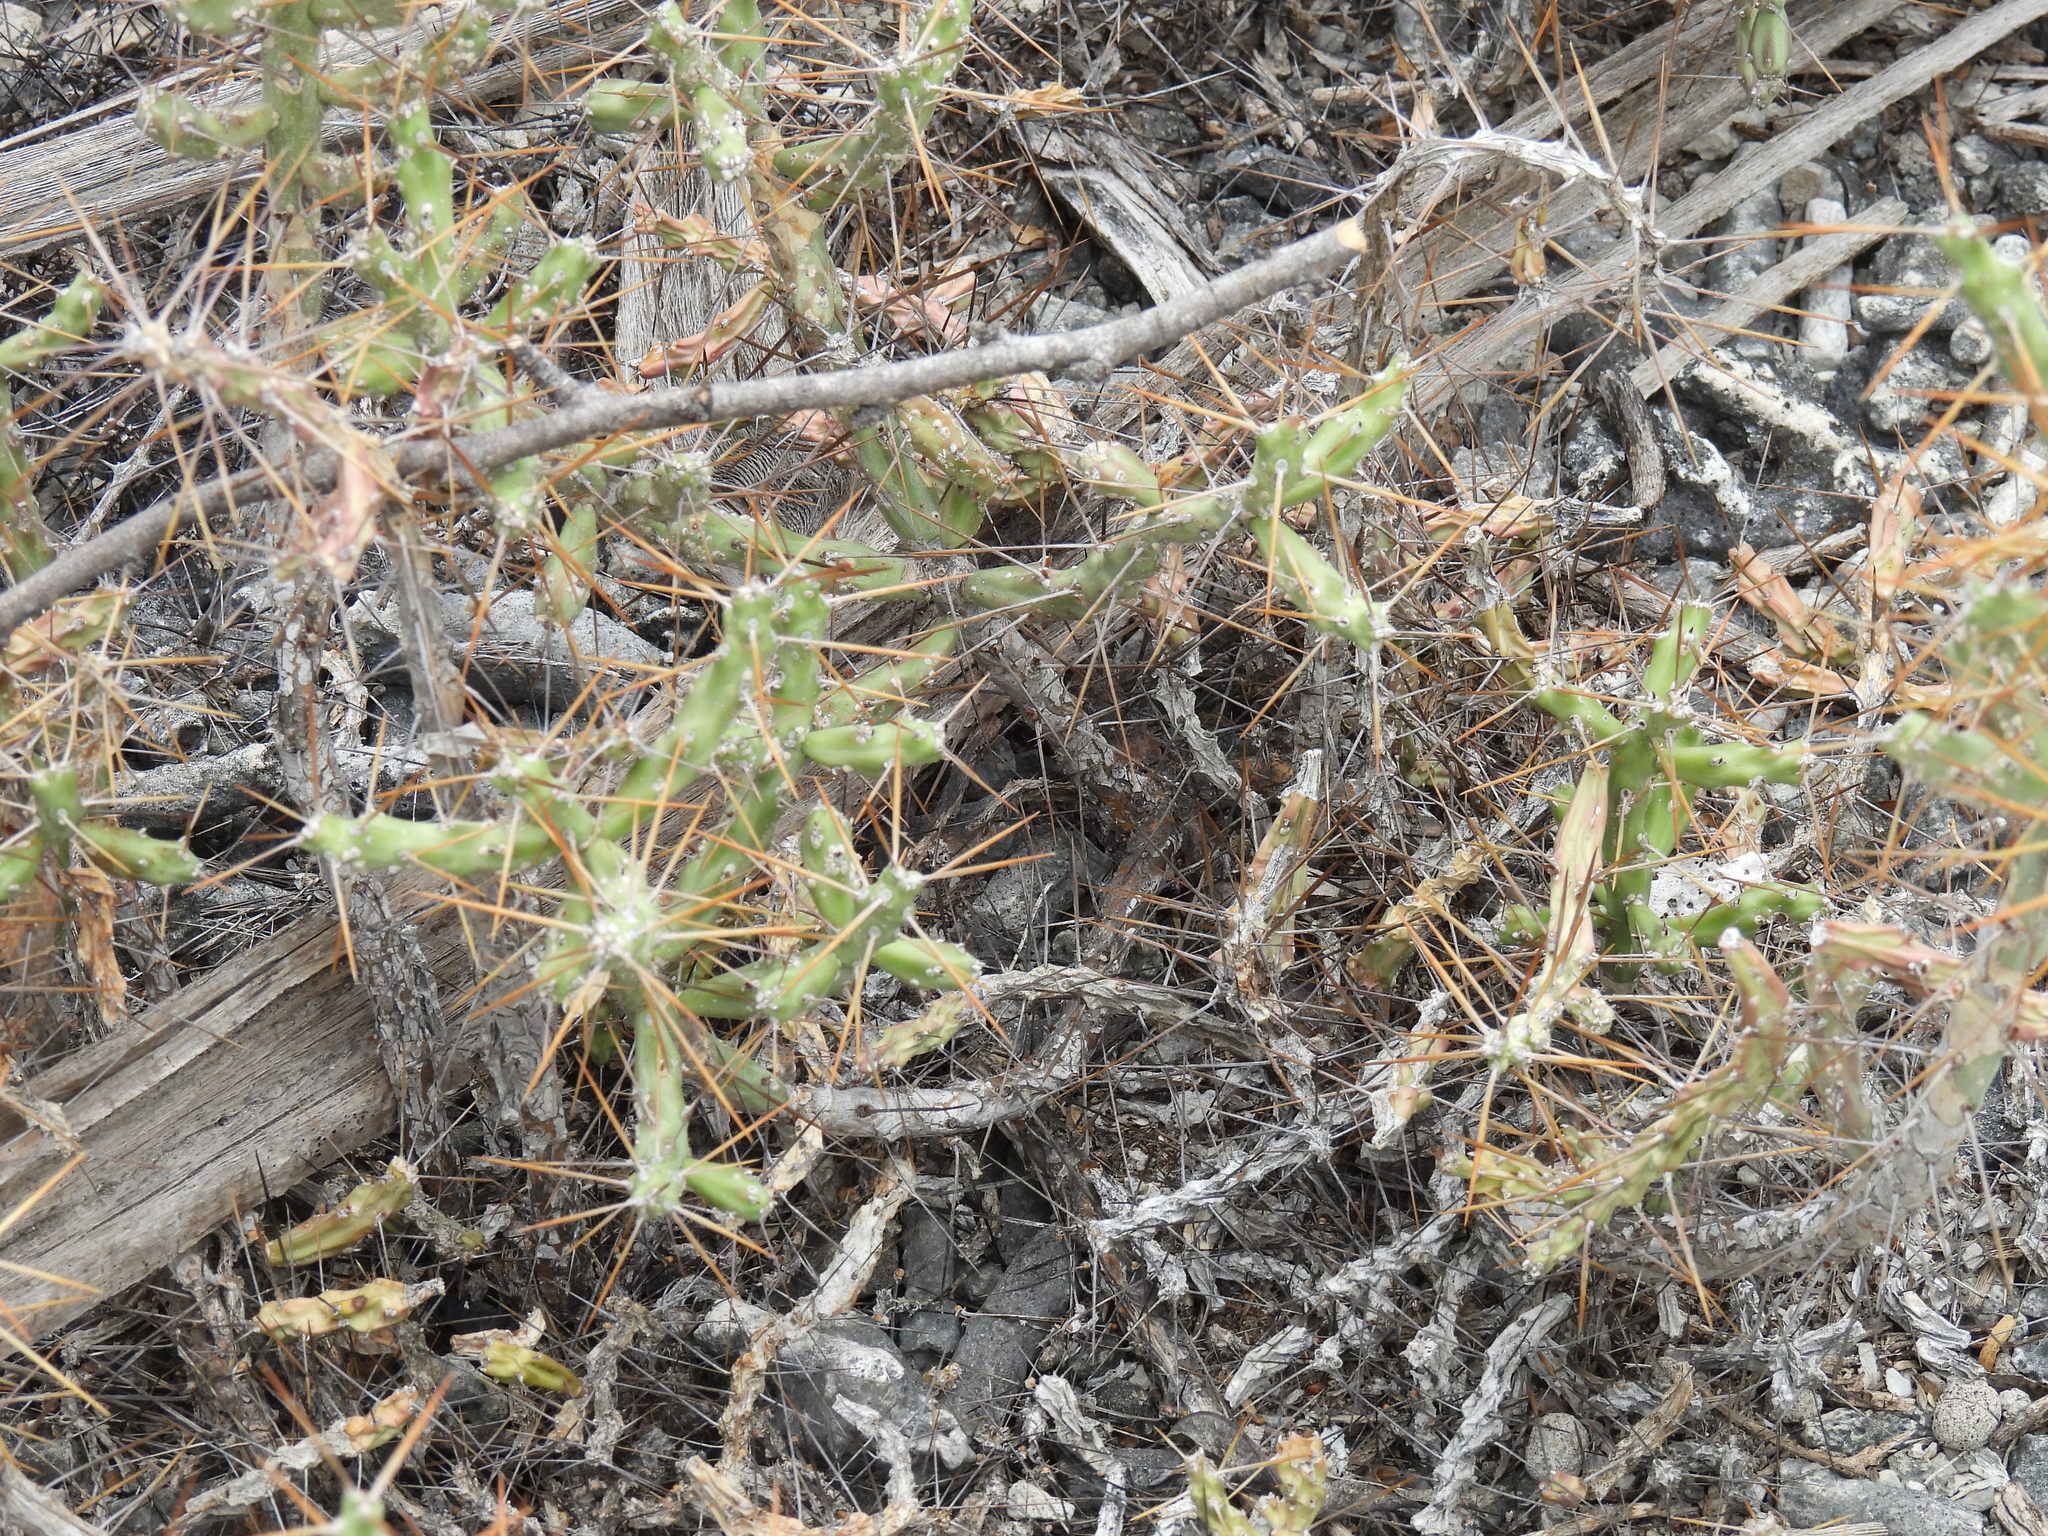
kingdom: Plantae
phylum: Tracheophyta
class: Magnoliopsida
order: Caryophyllales
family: Cactaceae
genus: Cylindropuntia
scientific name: Cylindropuntia caribaea
